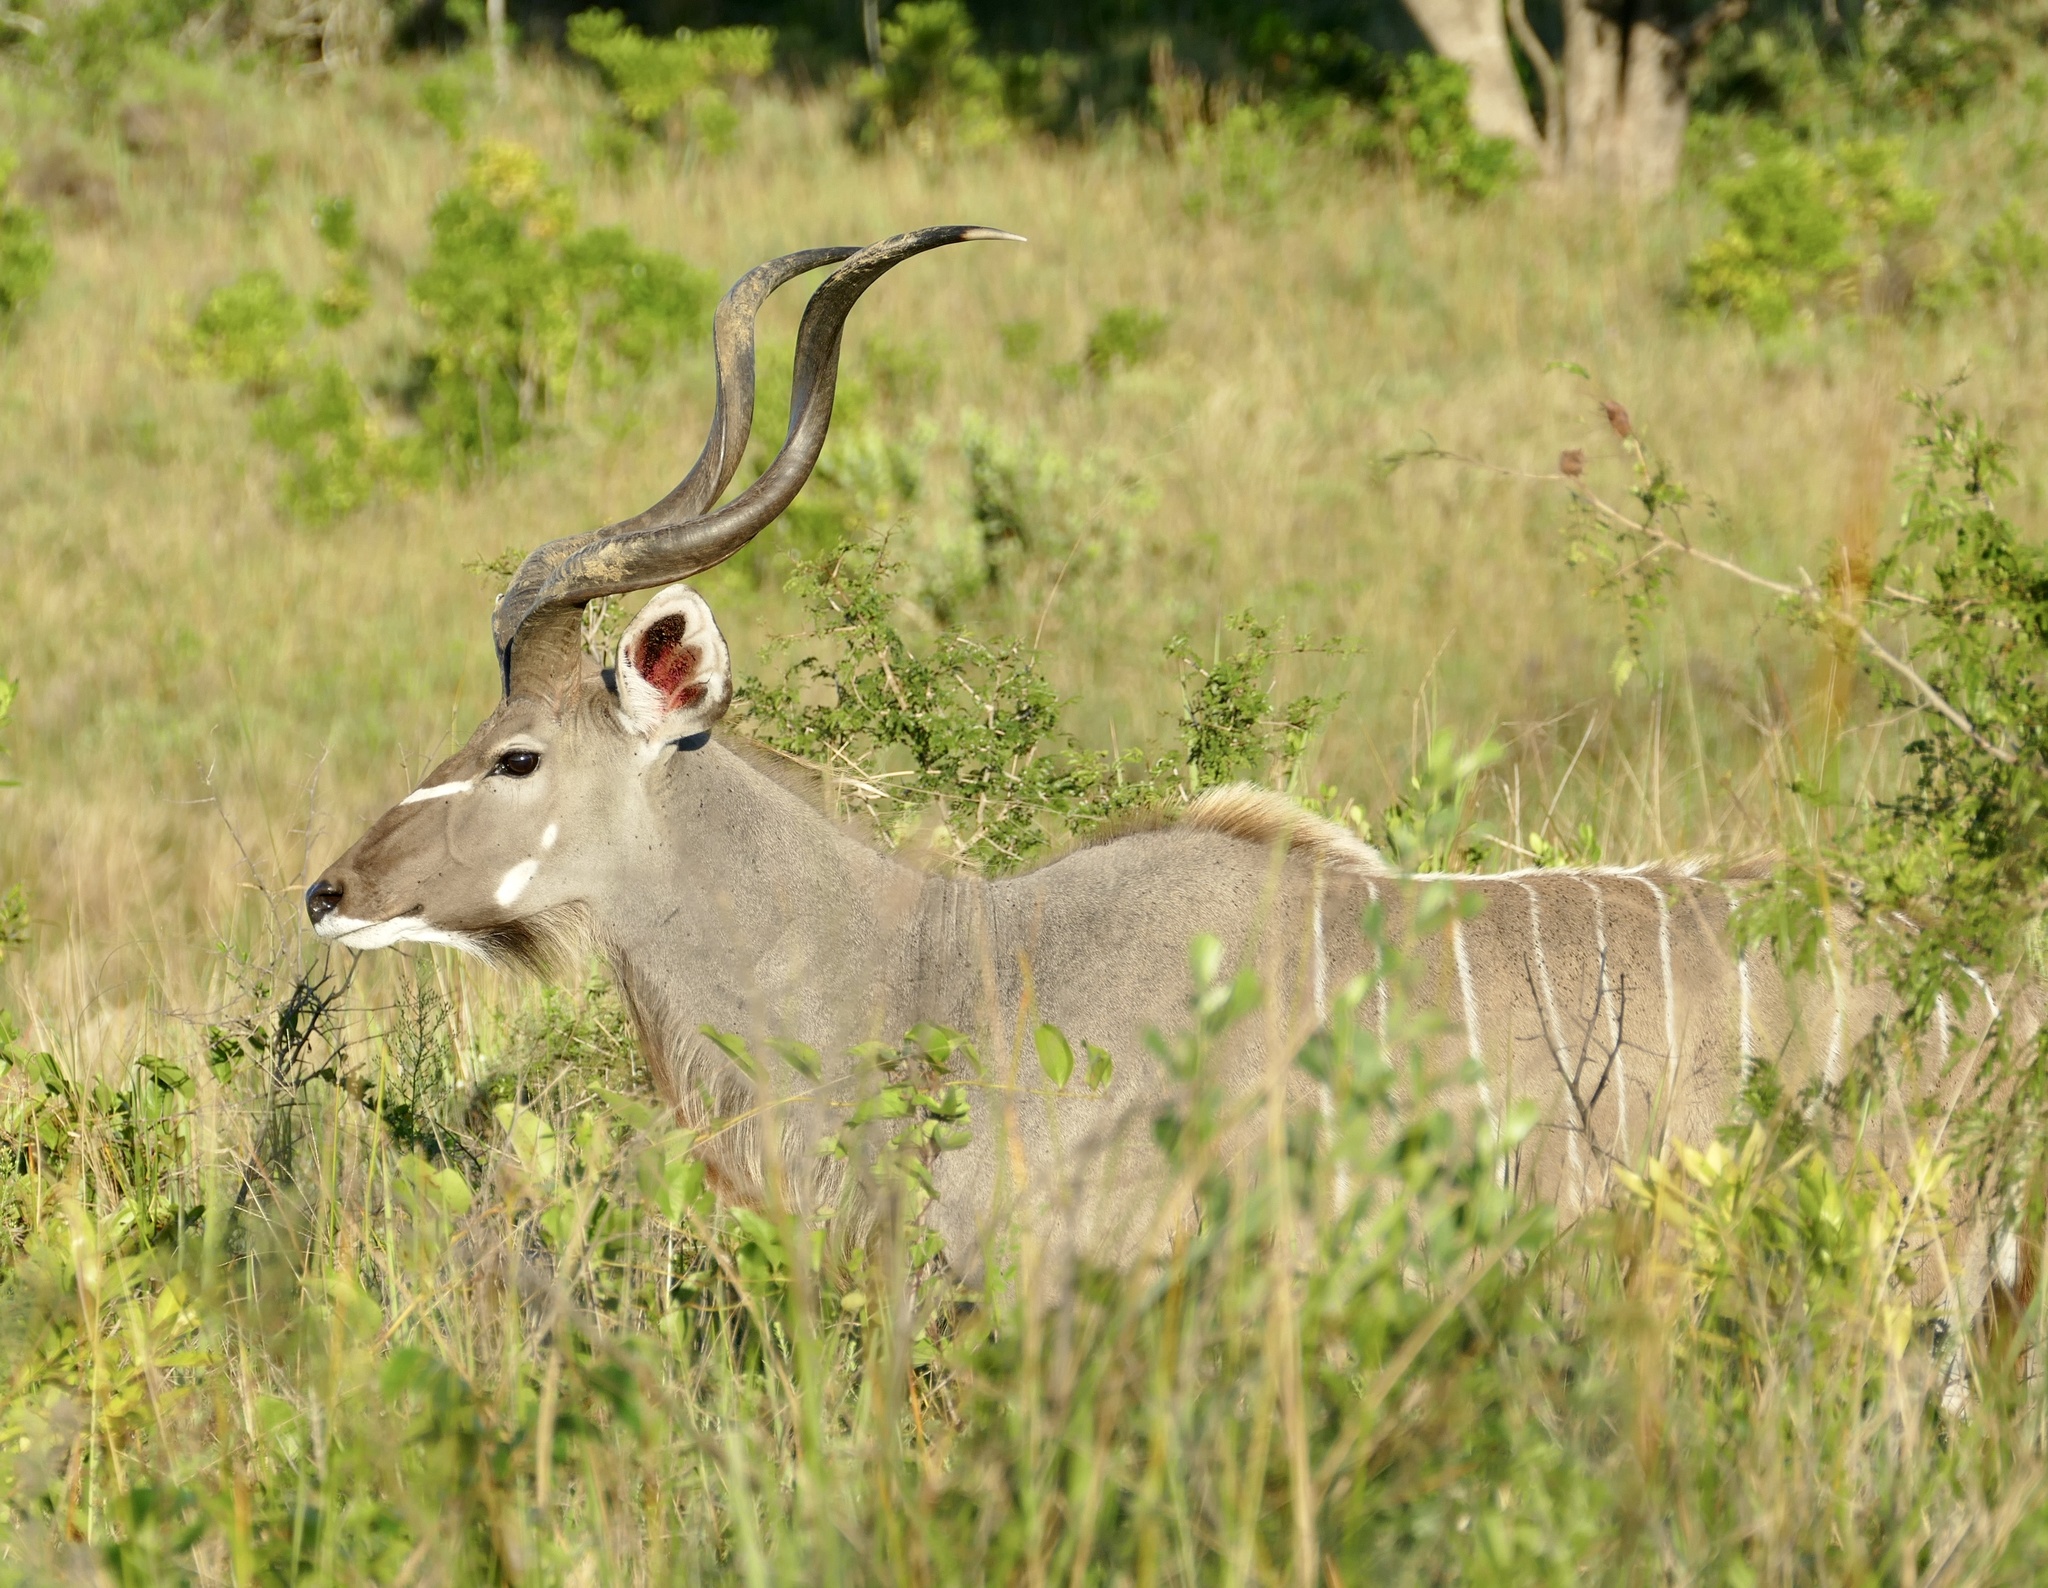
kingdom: Animalia
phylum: Chordata
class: Mammalia
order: Artiodactyla
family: Bovidae
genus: Tragelaphus
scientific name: Tragelaphus strepsiceros
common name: Greater kudu
